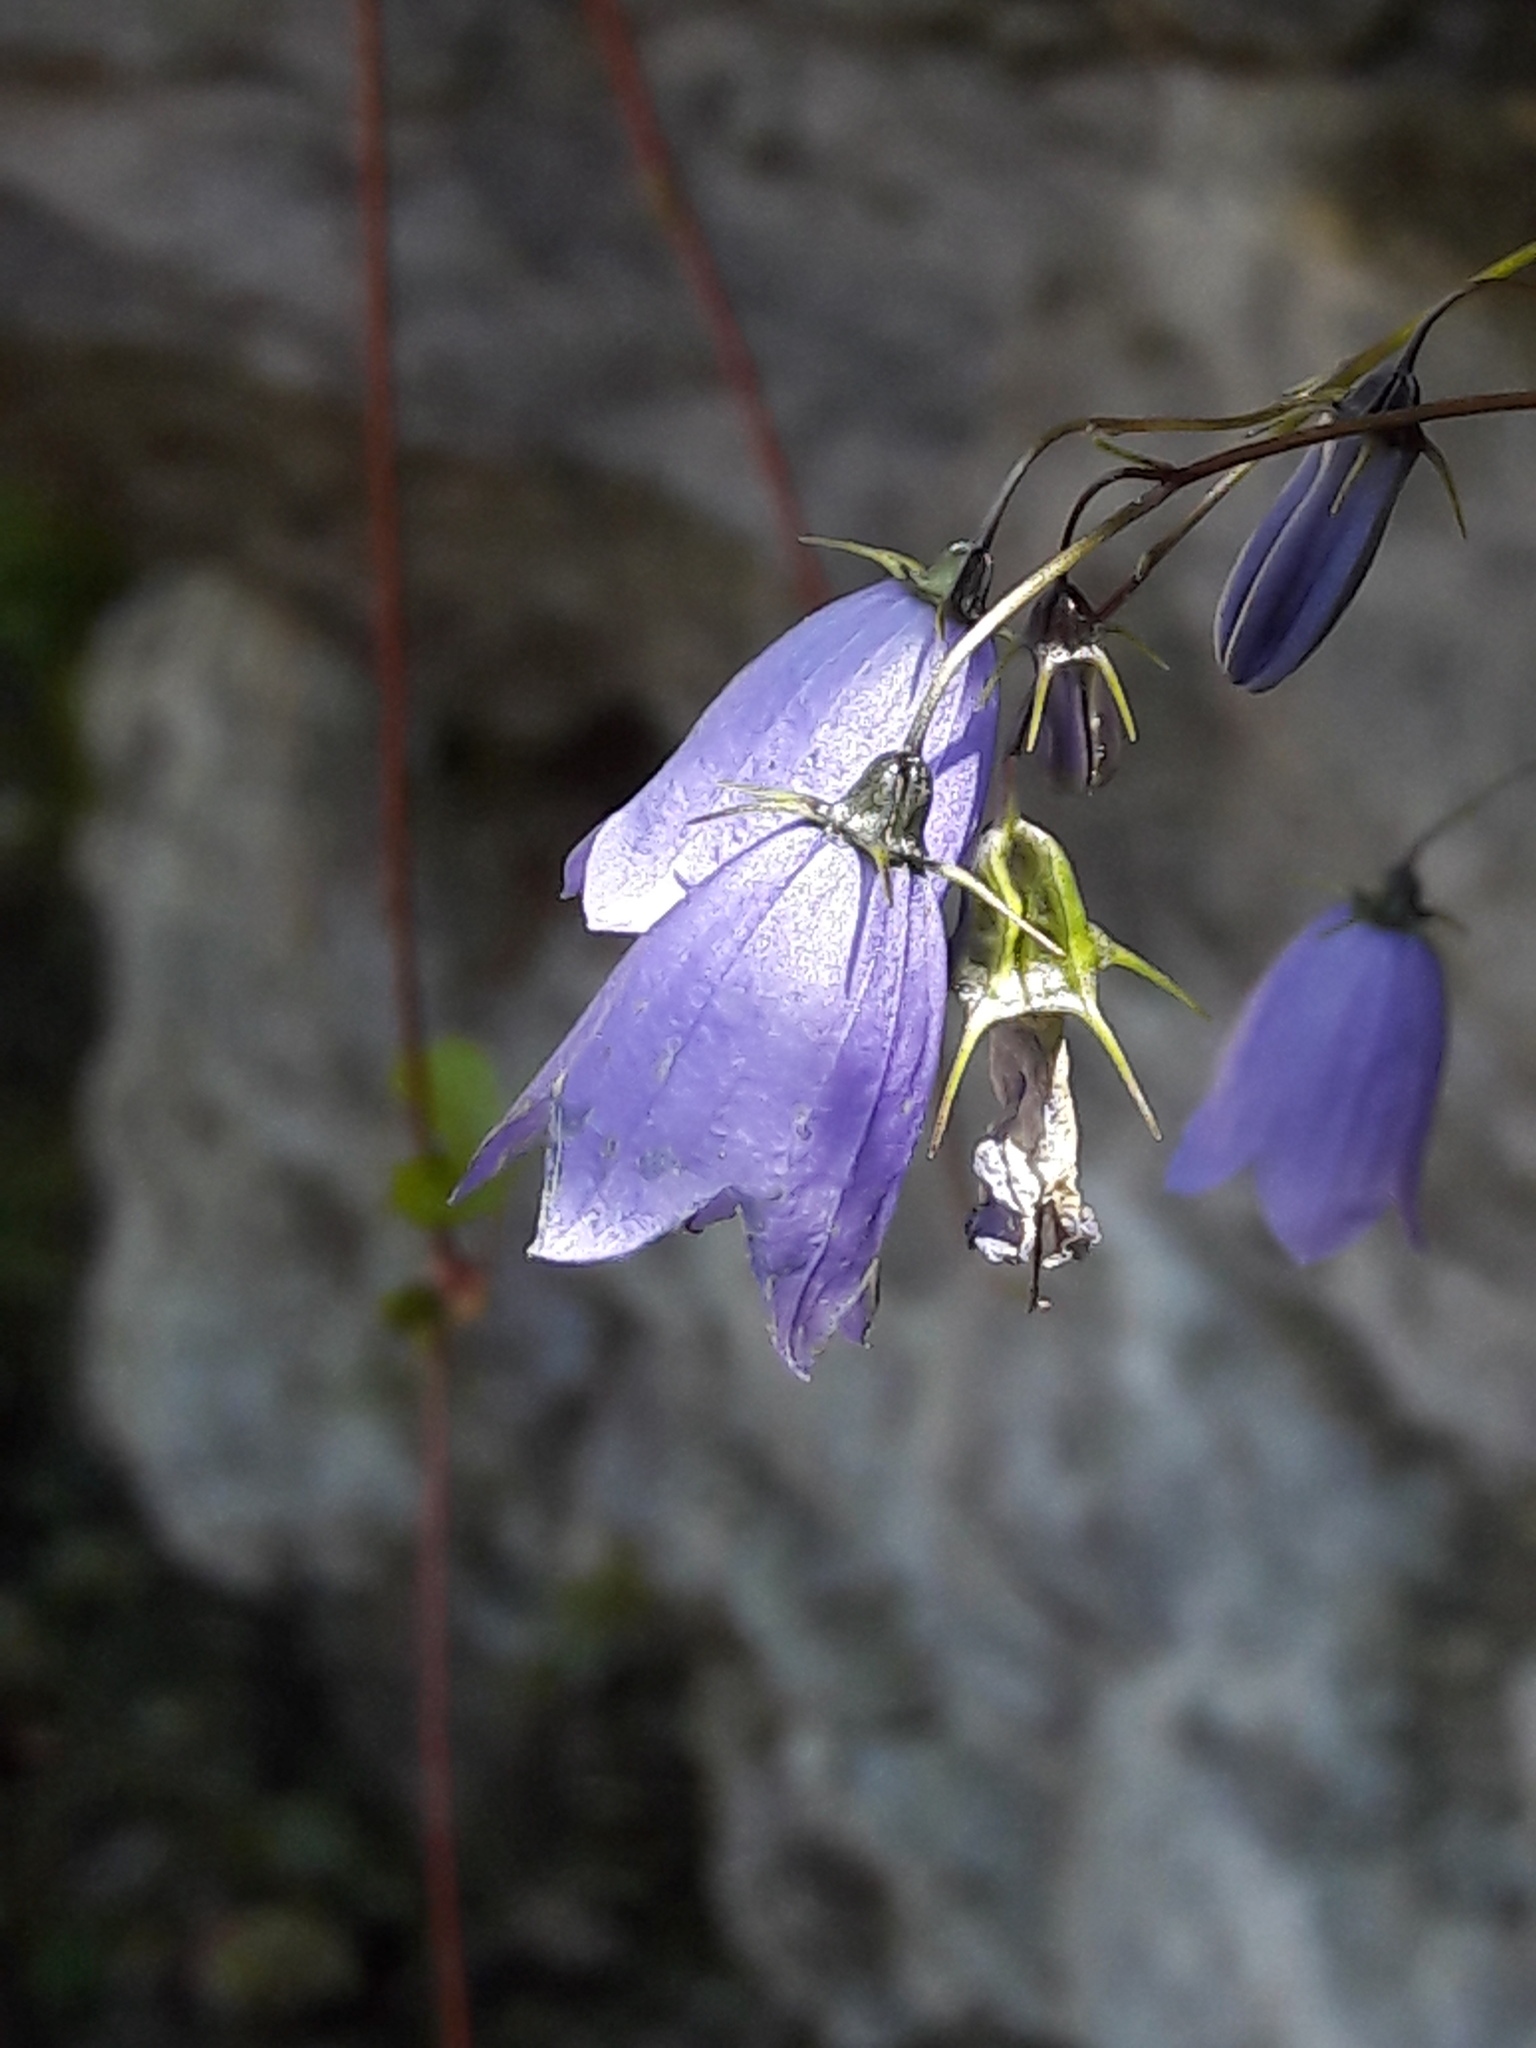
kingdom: Plantae
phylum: Tracheophyta
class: Magnoliopsida
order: Asterales
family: Campanulaceae
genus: Campanula
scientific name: Campanula cochleariifolia
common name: Fairies'-thimbles
